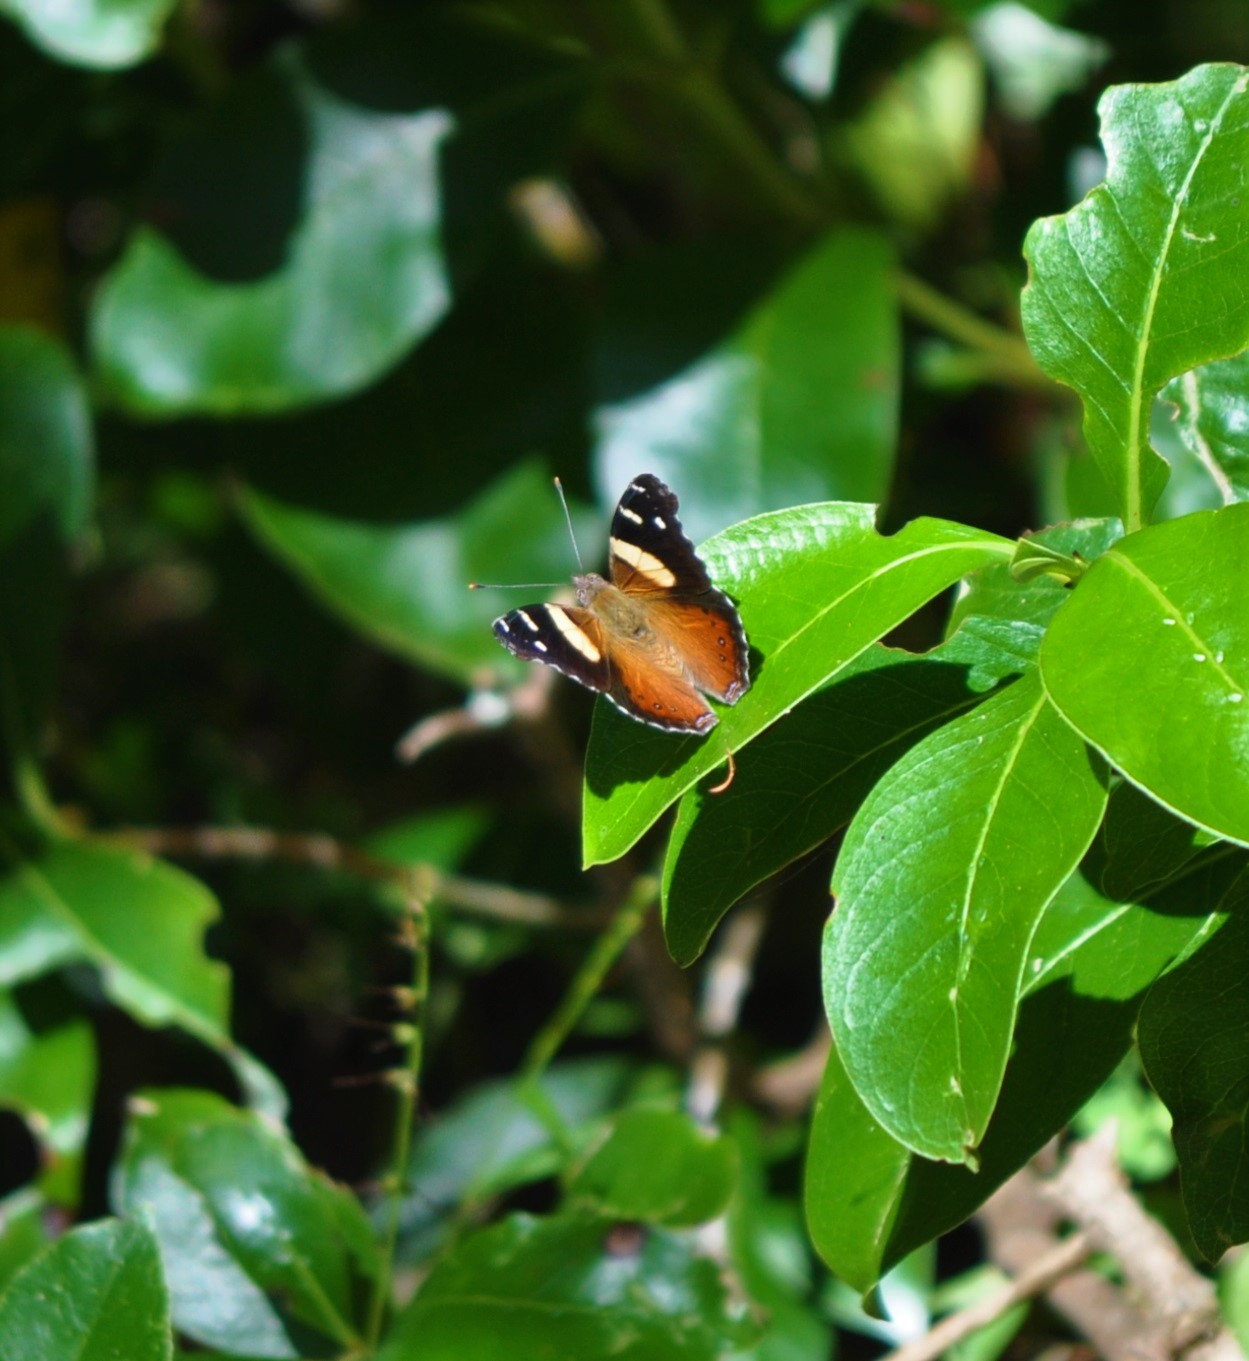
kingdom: Animalia
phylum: Arthropoda
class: Insecta
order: Lepidoptera
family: Nymphalidae
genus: Vanessa
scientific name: Vanessa itea
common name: Yellow admiral
